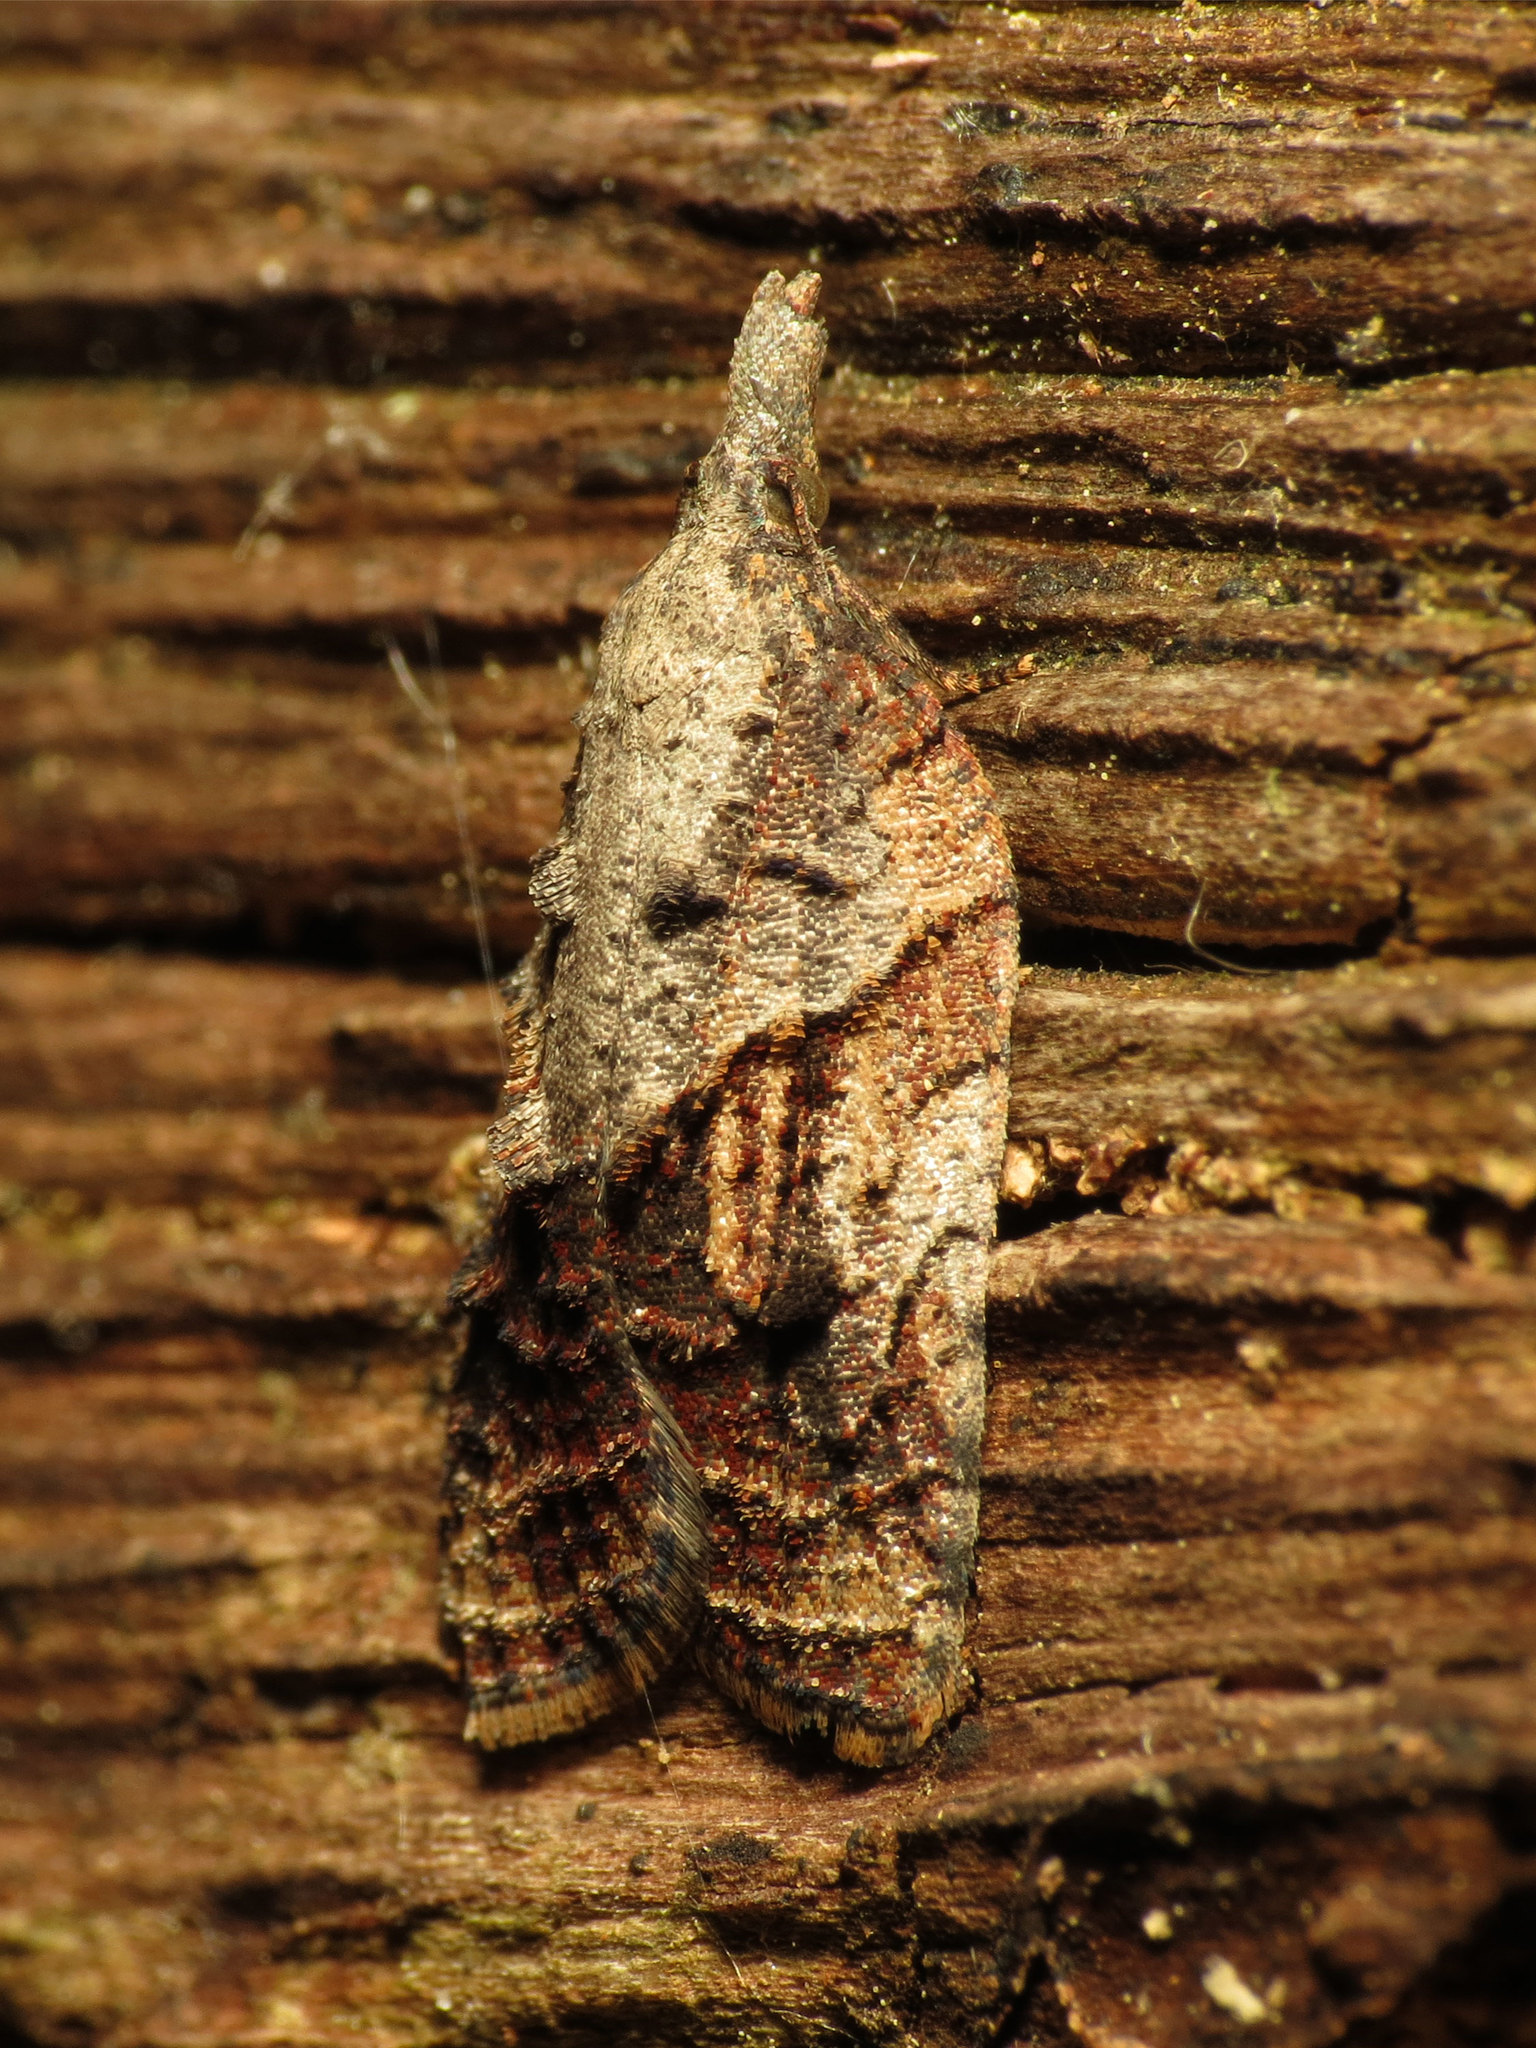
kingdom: Animalia
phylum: Arthropoda
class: Insecta
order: Lepidoptera
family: Tortricidae
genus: Platynota
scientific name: Platynota idaeusalis
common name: Tufted apple bud moth
